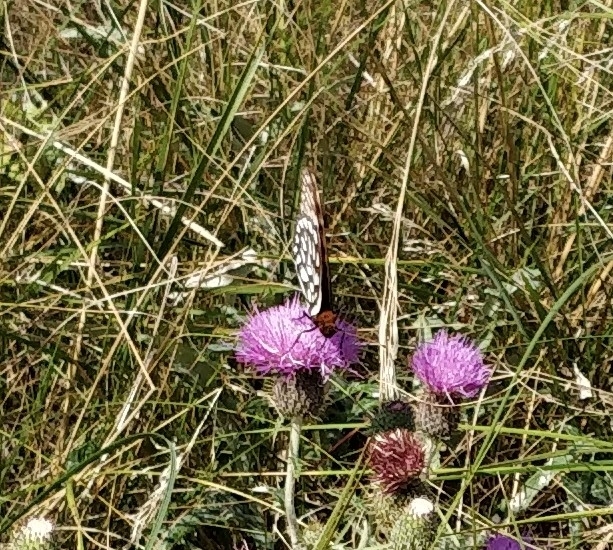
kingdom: Animalia
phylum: Arthropoda
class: Insecta
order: Lepidoptera
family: Nymphalidae
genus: Speyeria
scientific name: Speyeria idalia
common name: Regal fritillary
